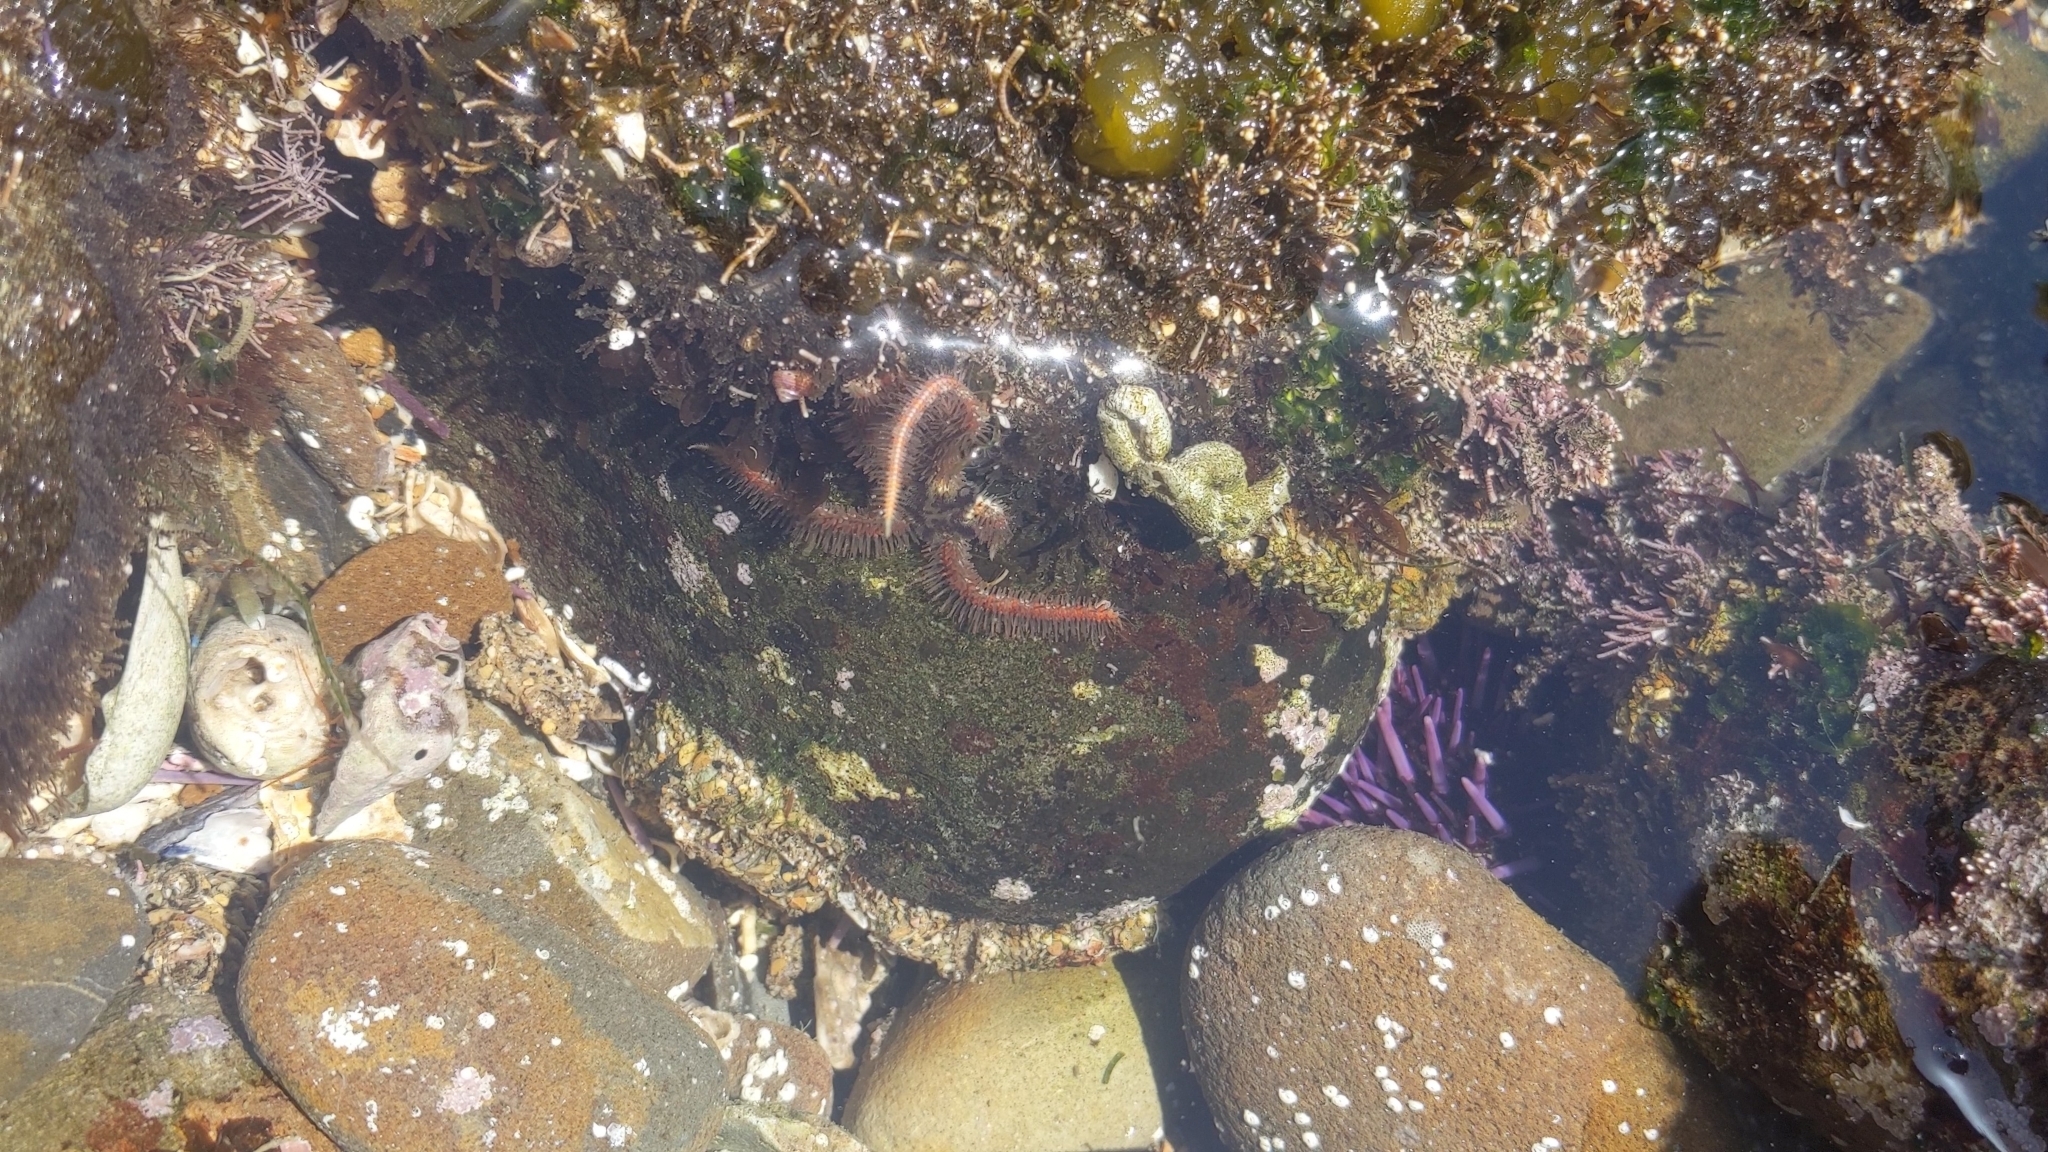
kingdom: Animalia
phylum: Echinodermata
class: Ophiuroidea
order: Amphilepidida
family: Ophiotrichidae
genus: Ophiothrix
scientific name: Ophiothrix spiculata
